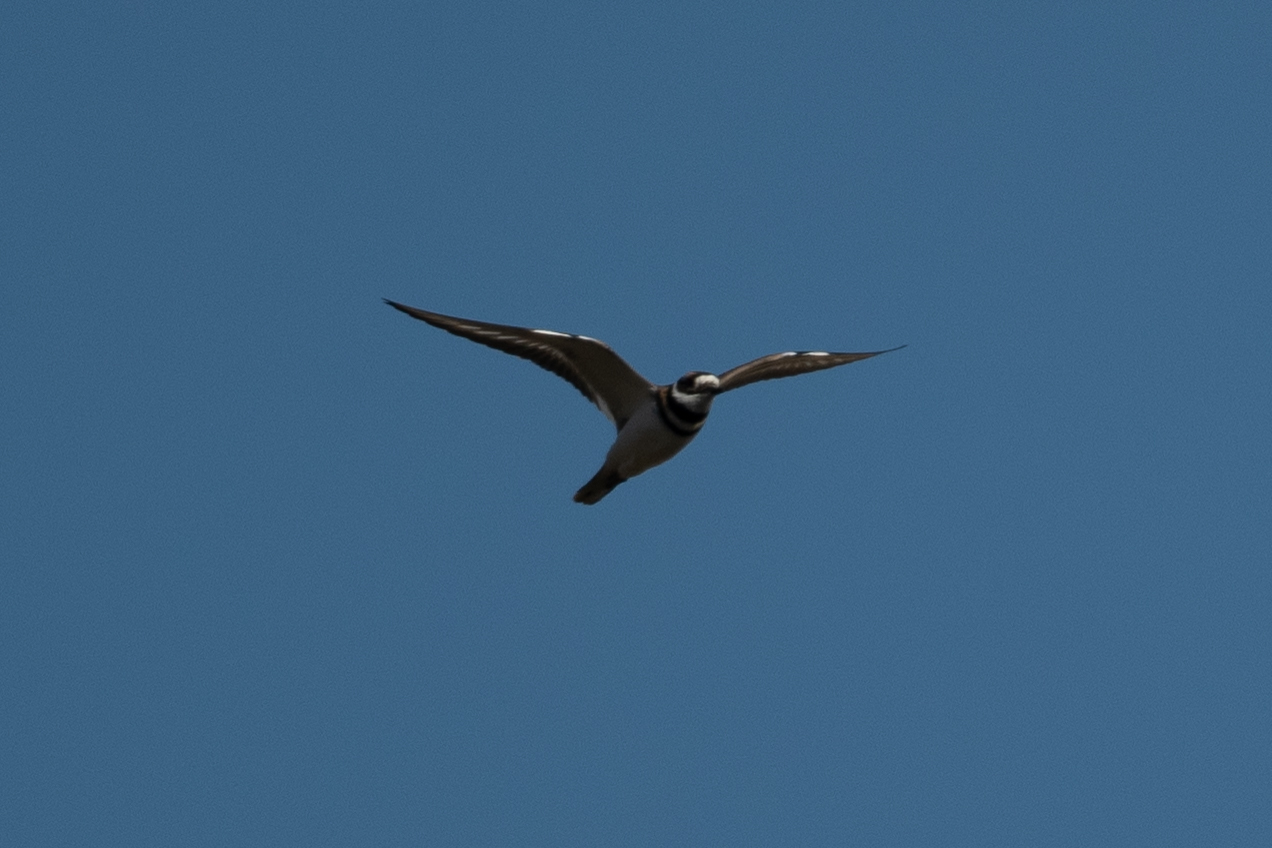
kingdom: Animalia
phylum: Chordata
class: Aves
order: Charadriiformes
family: Charadriidae
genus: Charadrius
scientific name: Charadrius vociferus
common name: Killdeer
